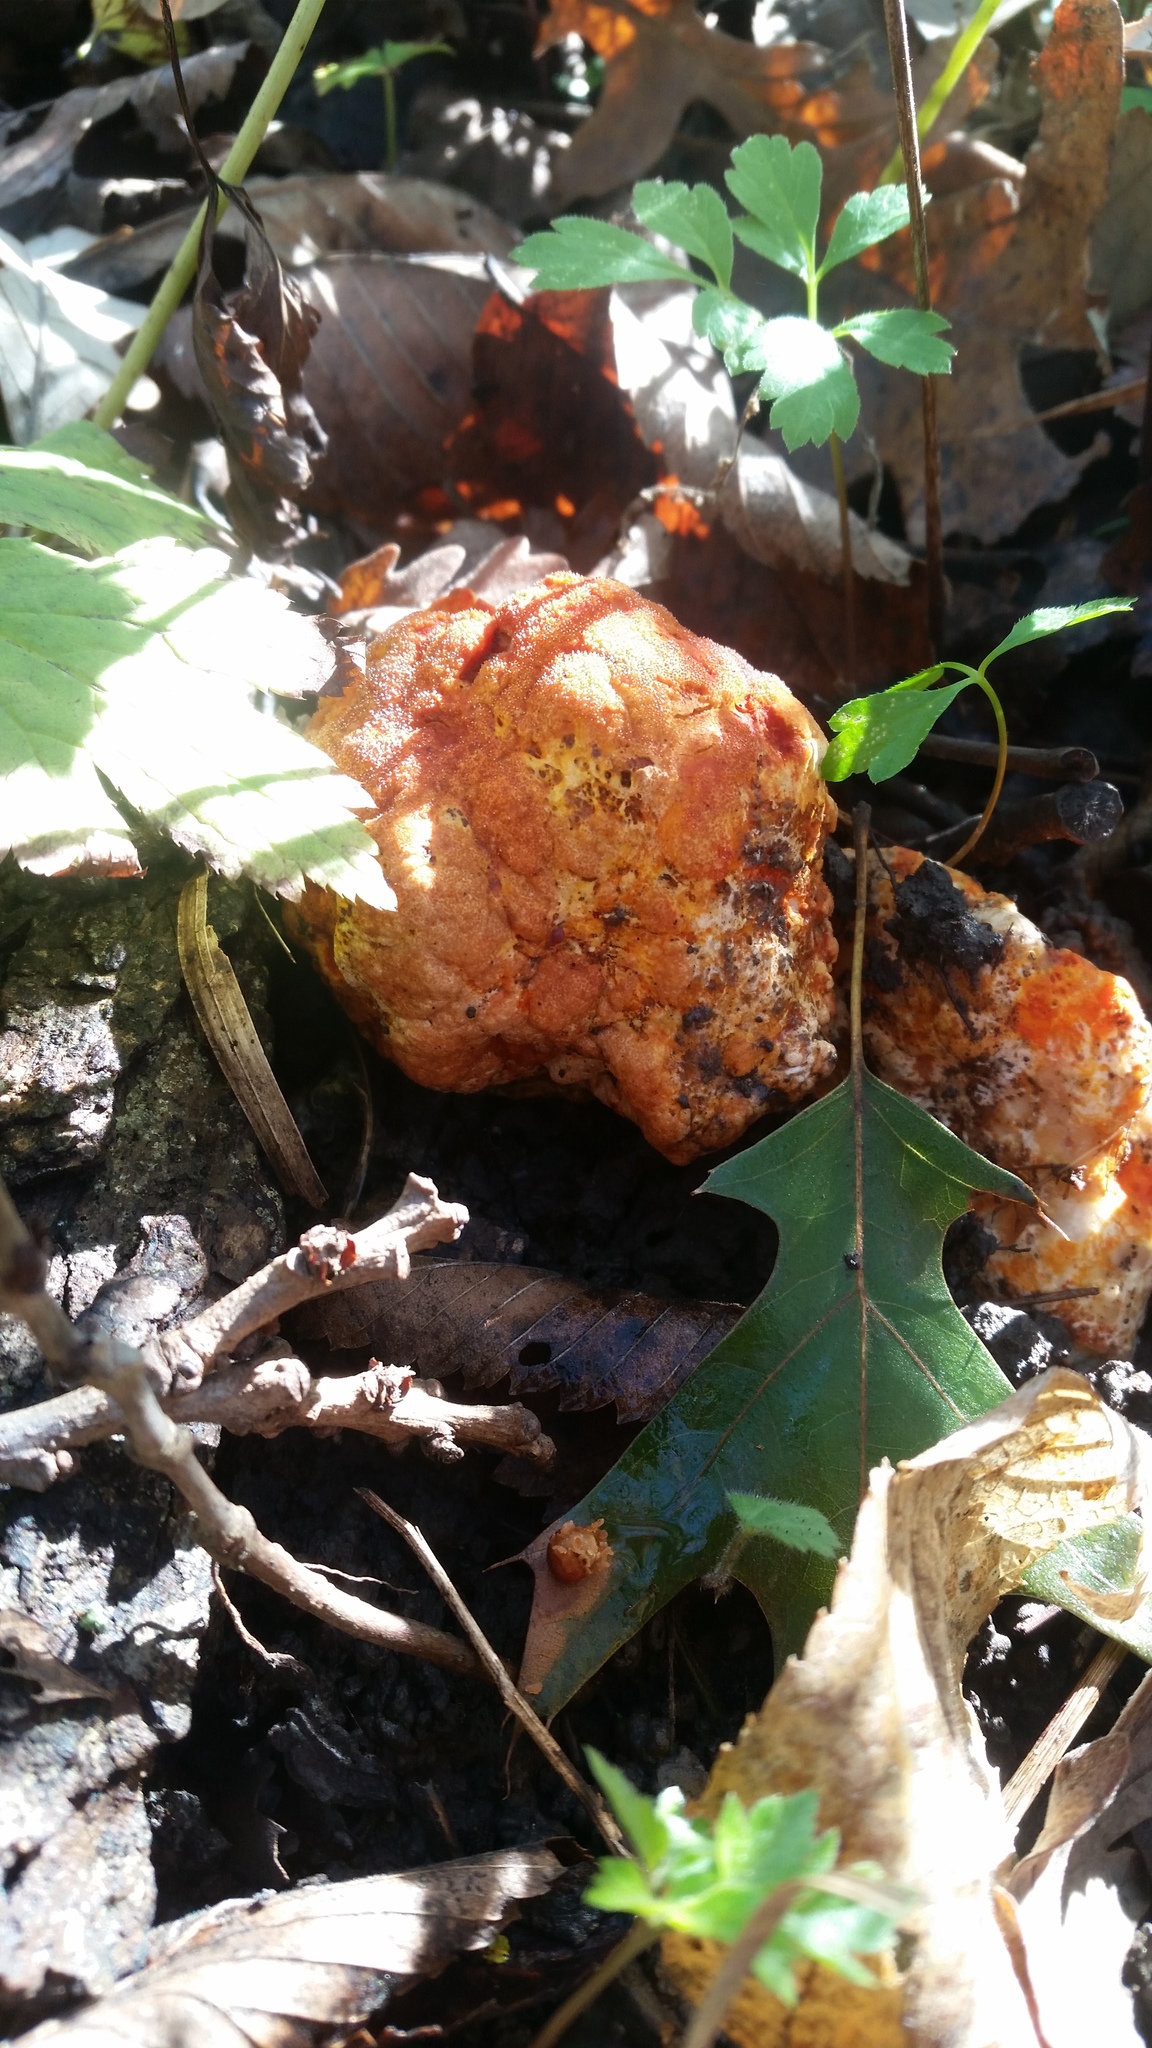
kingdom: Fungi
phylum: Ascomycota
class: Sordariomycetes
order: Hypocreales
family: Hypocreaceae
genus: Hypomyces
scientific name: Hypomyces lactifluorum
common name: Lobster mushroom
